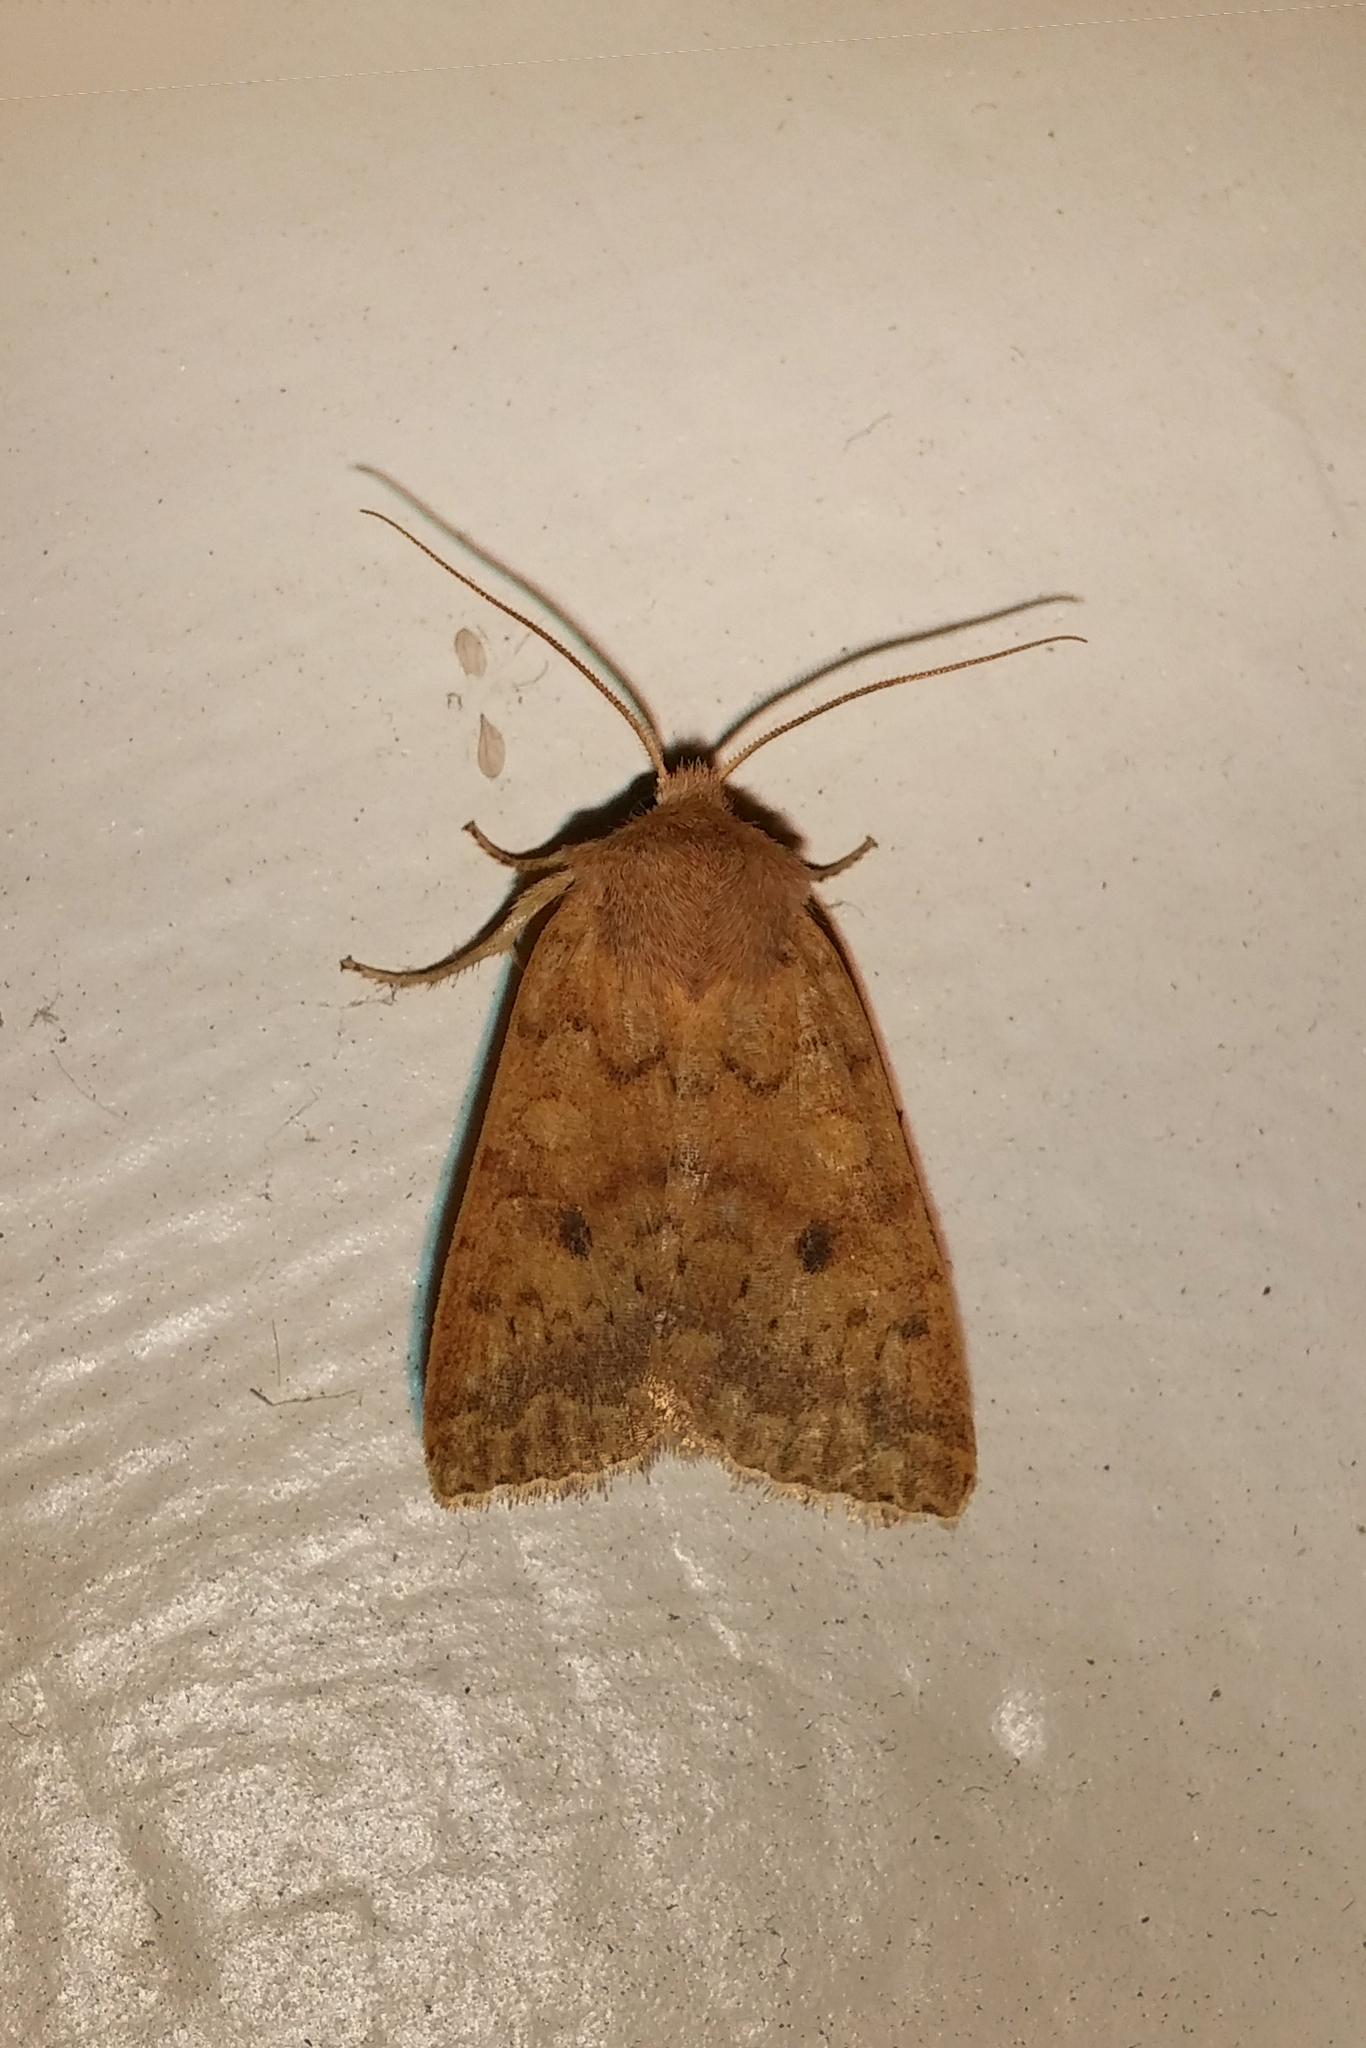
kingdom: Animalia
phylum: Arthropoda
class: Insecta
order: Lepidoptera
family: Noctuidae
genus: Agrochola
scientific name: Agrochola bicolorago
